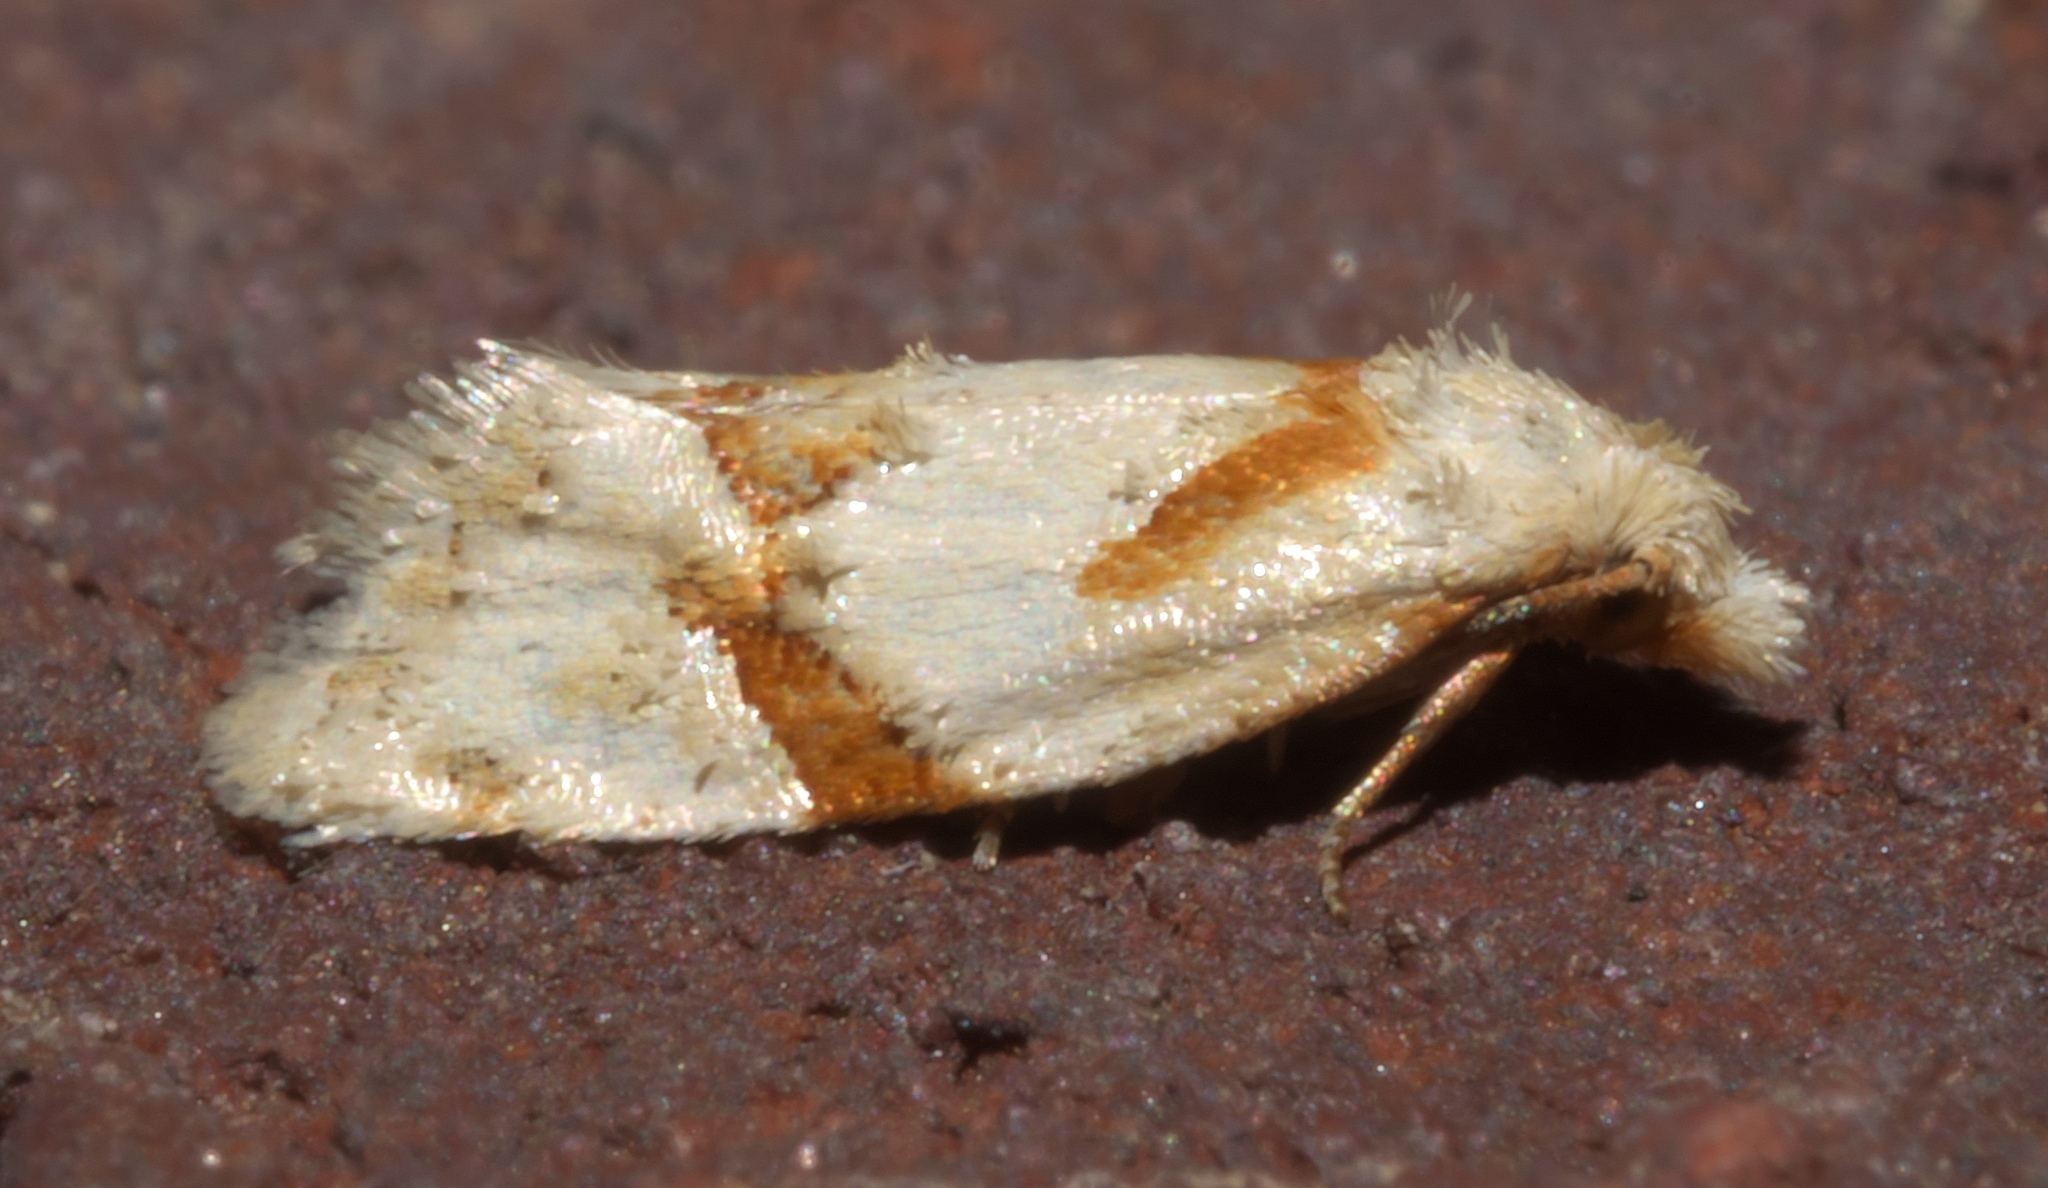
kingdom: Animalia
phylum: Arthropoda
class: Insecta
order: Lepidoptera
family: Tortricidae
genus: Aethes
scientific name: Aethes patricia
